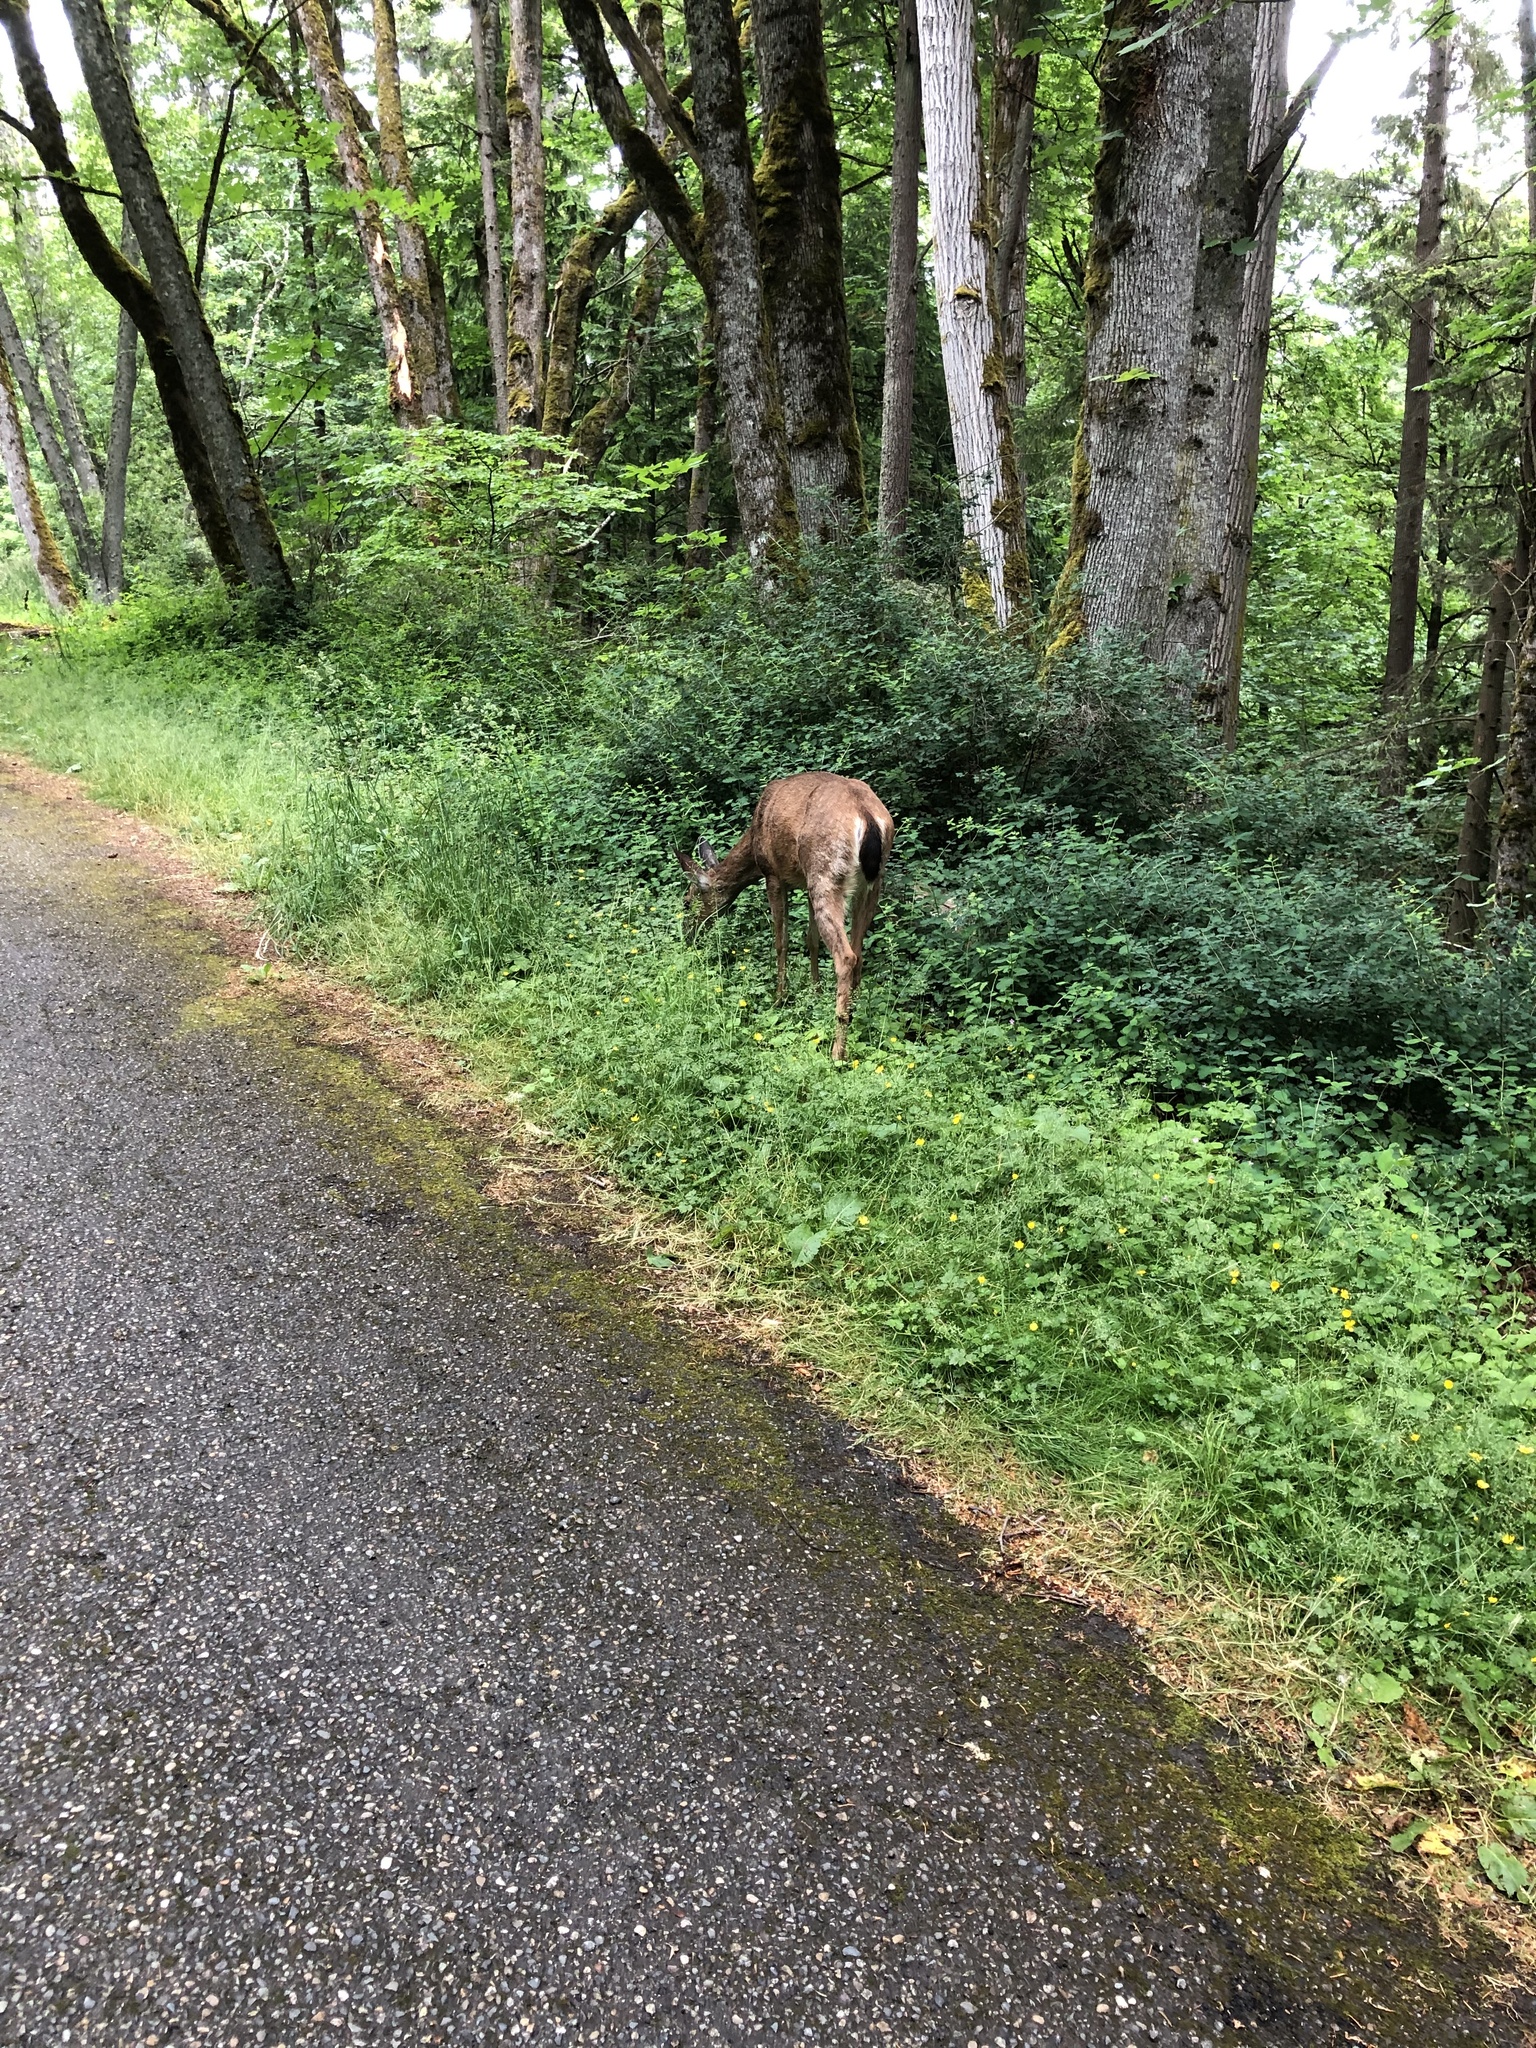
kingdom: Animalia
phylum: Chordata
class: Mammalia
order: Artiodactyla
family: Cervidae
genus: Odocoileus
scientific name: Odocoileus hemionus
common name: Mule deer
